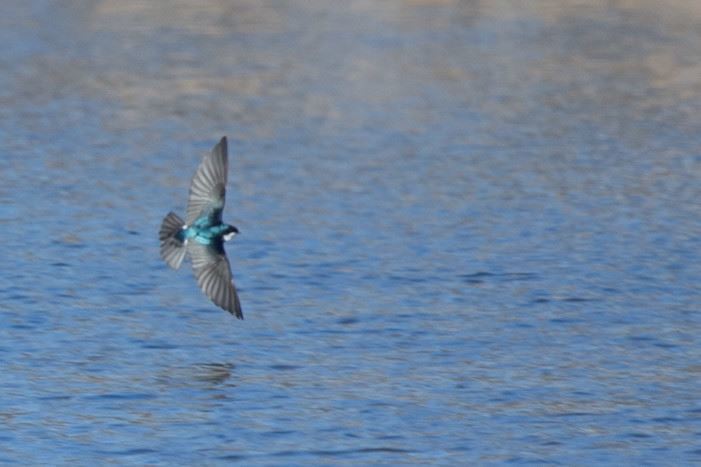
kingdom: Animalia
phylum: Chordata
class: Aves
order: Passeriformes
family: Hirundinidae
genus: Tachycineta
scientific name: Tachycineta bicolor
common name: Tree swallow
